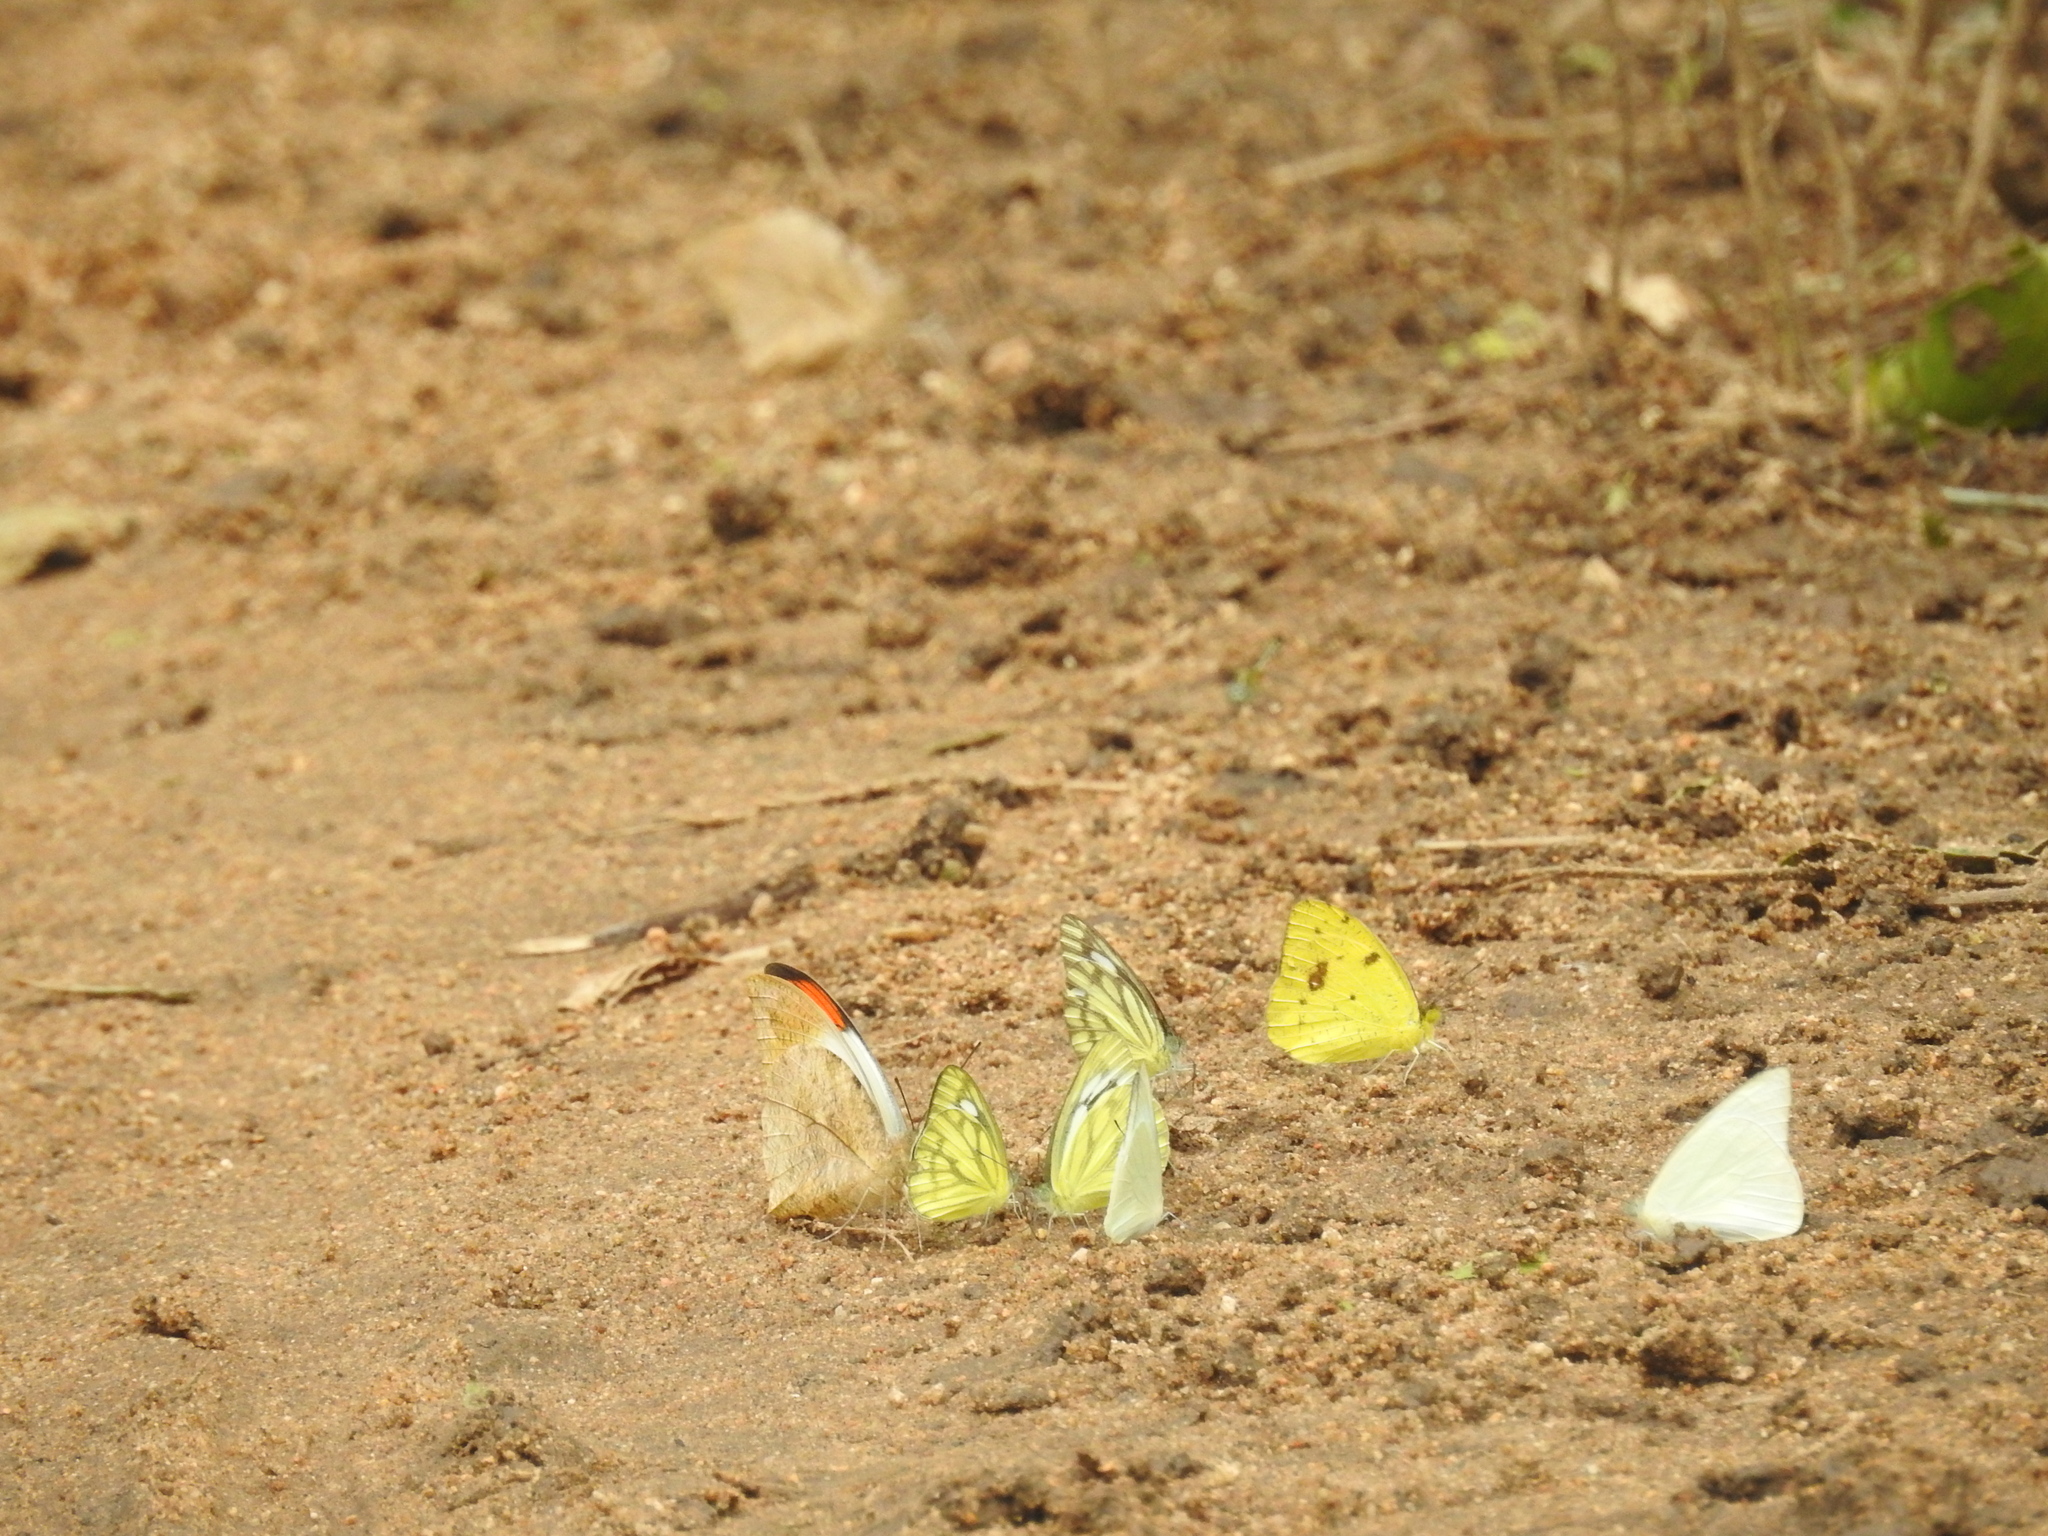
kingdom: Animalia
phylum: Arthropoda
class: Insecta
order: Lepidoptera
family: Pieridae
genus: Ixias
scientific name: Ixias pyrene
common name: Yellow orange tip
